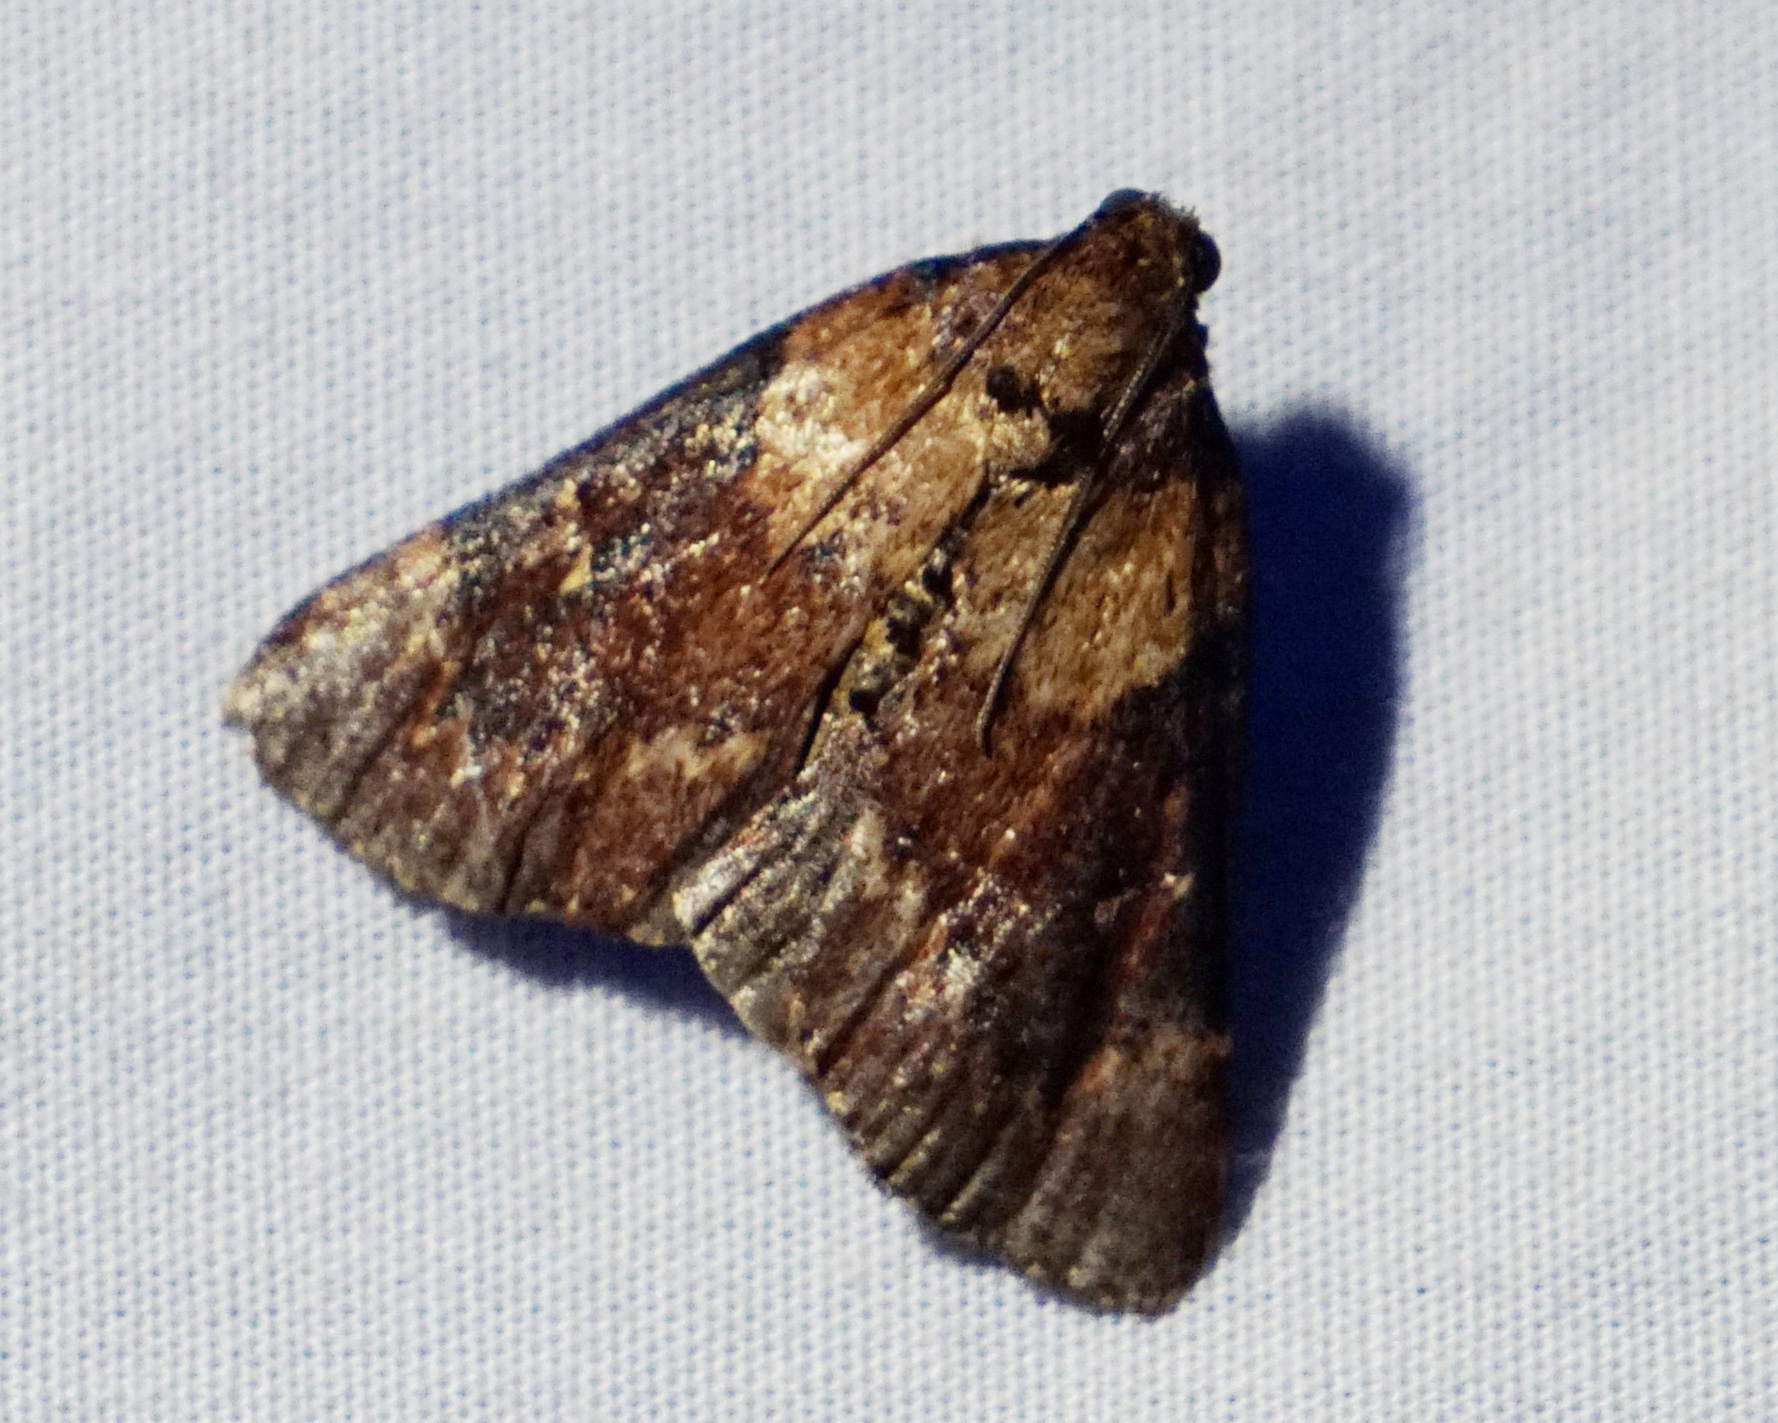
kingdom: Animalia
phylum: Arthropoda
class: Insecta
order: Lepidoptera
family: Pyralidae
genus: Omphalocera
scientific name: Omphalocera munroei
